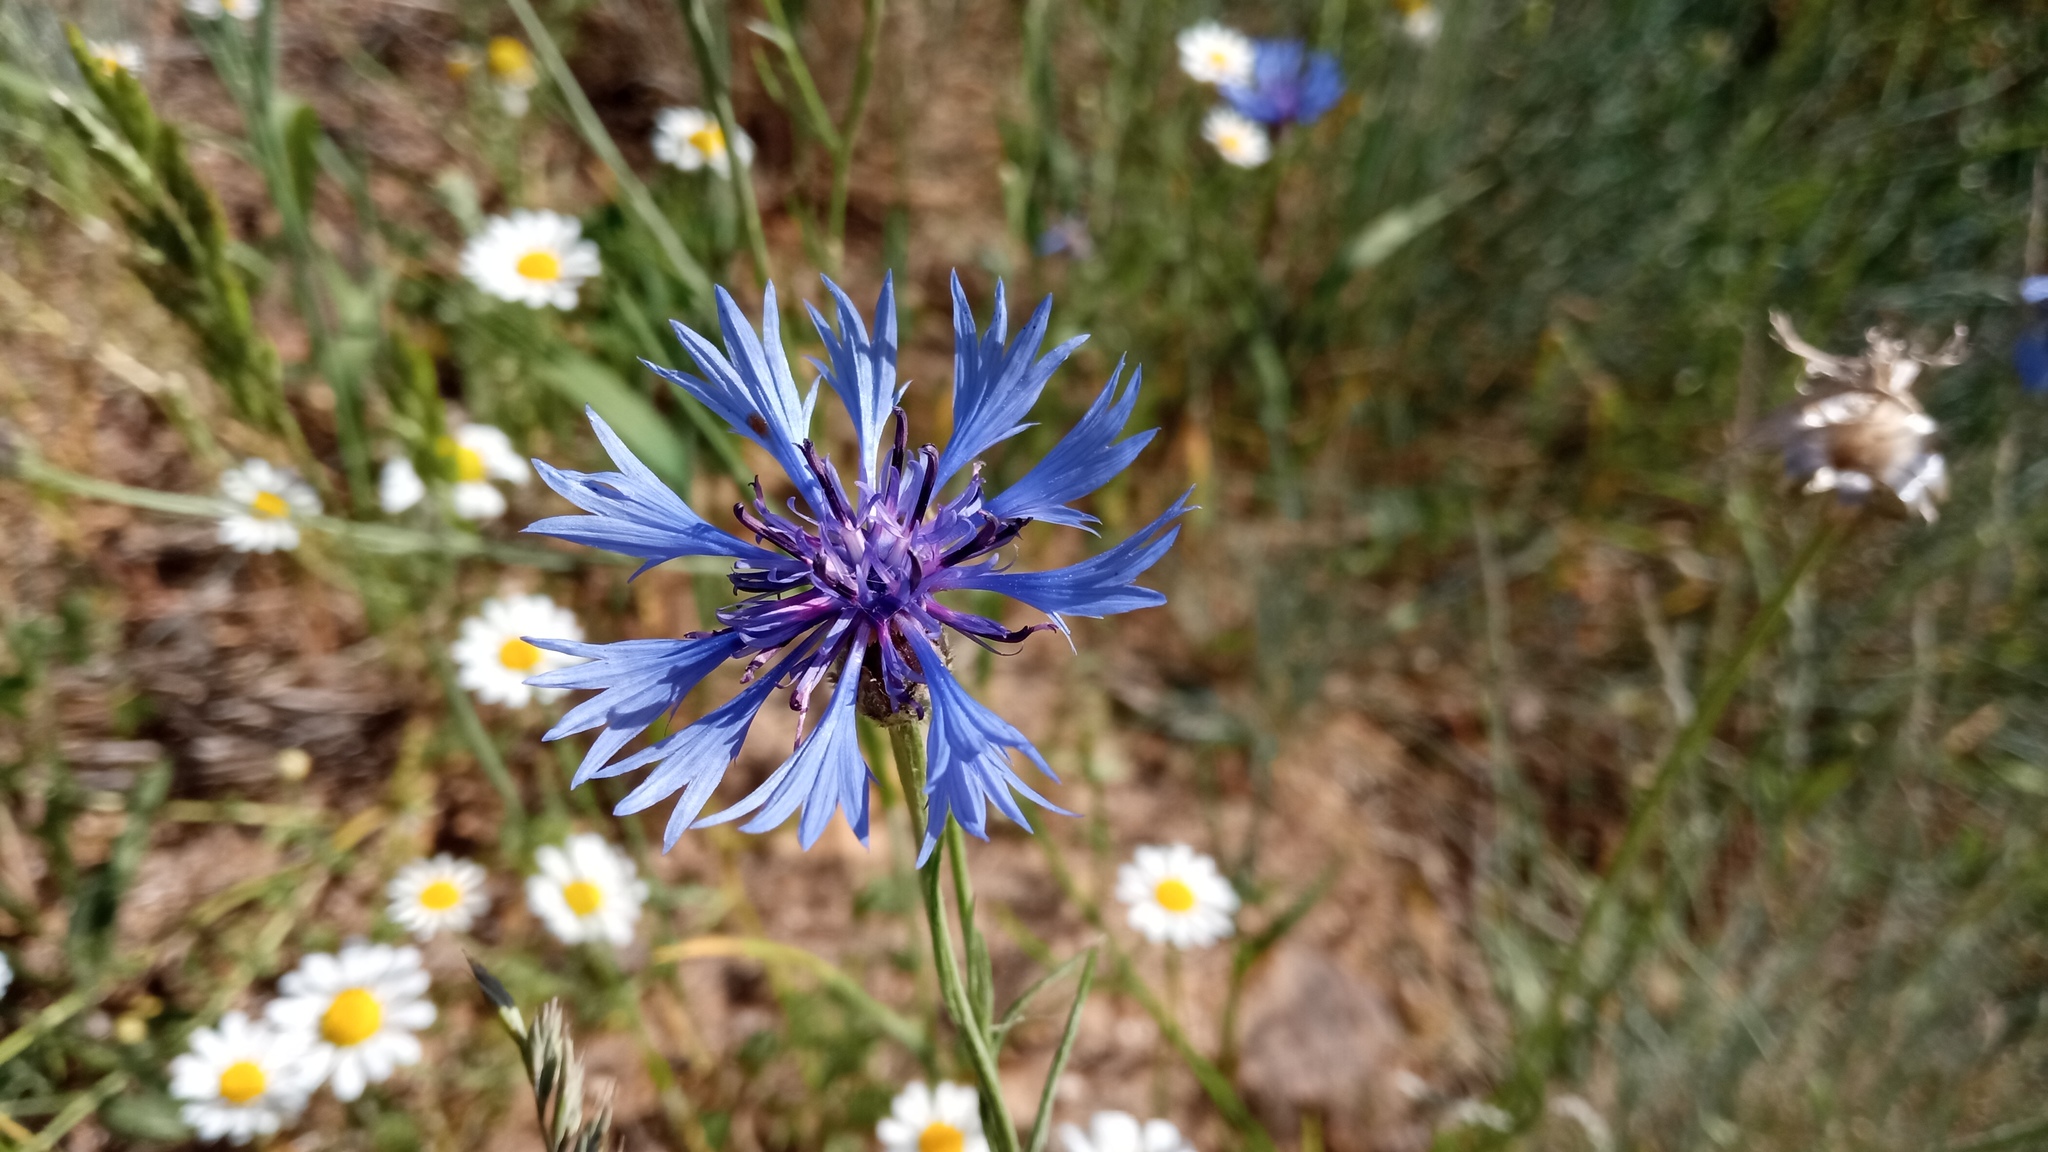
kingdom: Plantae
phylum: Tracheophyta
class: Magnoliopsida
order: Asterales
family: Asteraceae
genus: Centaurea
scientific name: Centaurea cyanus
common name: Cornflower
